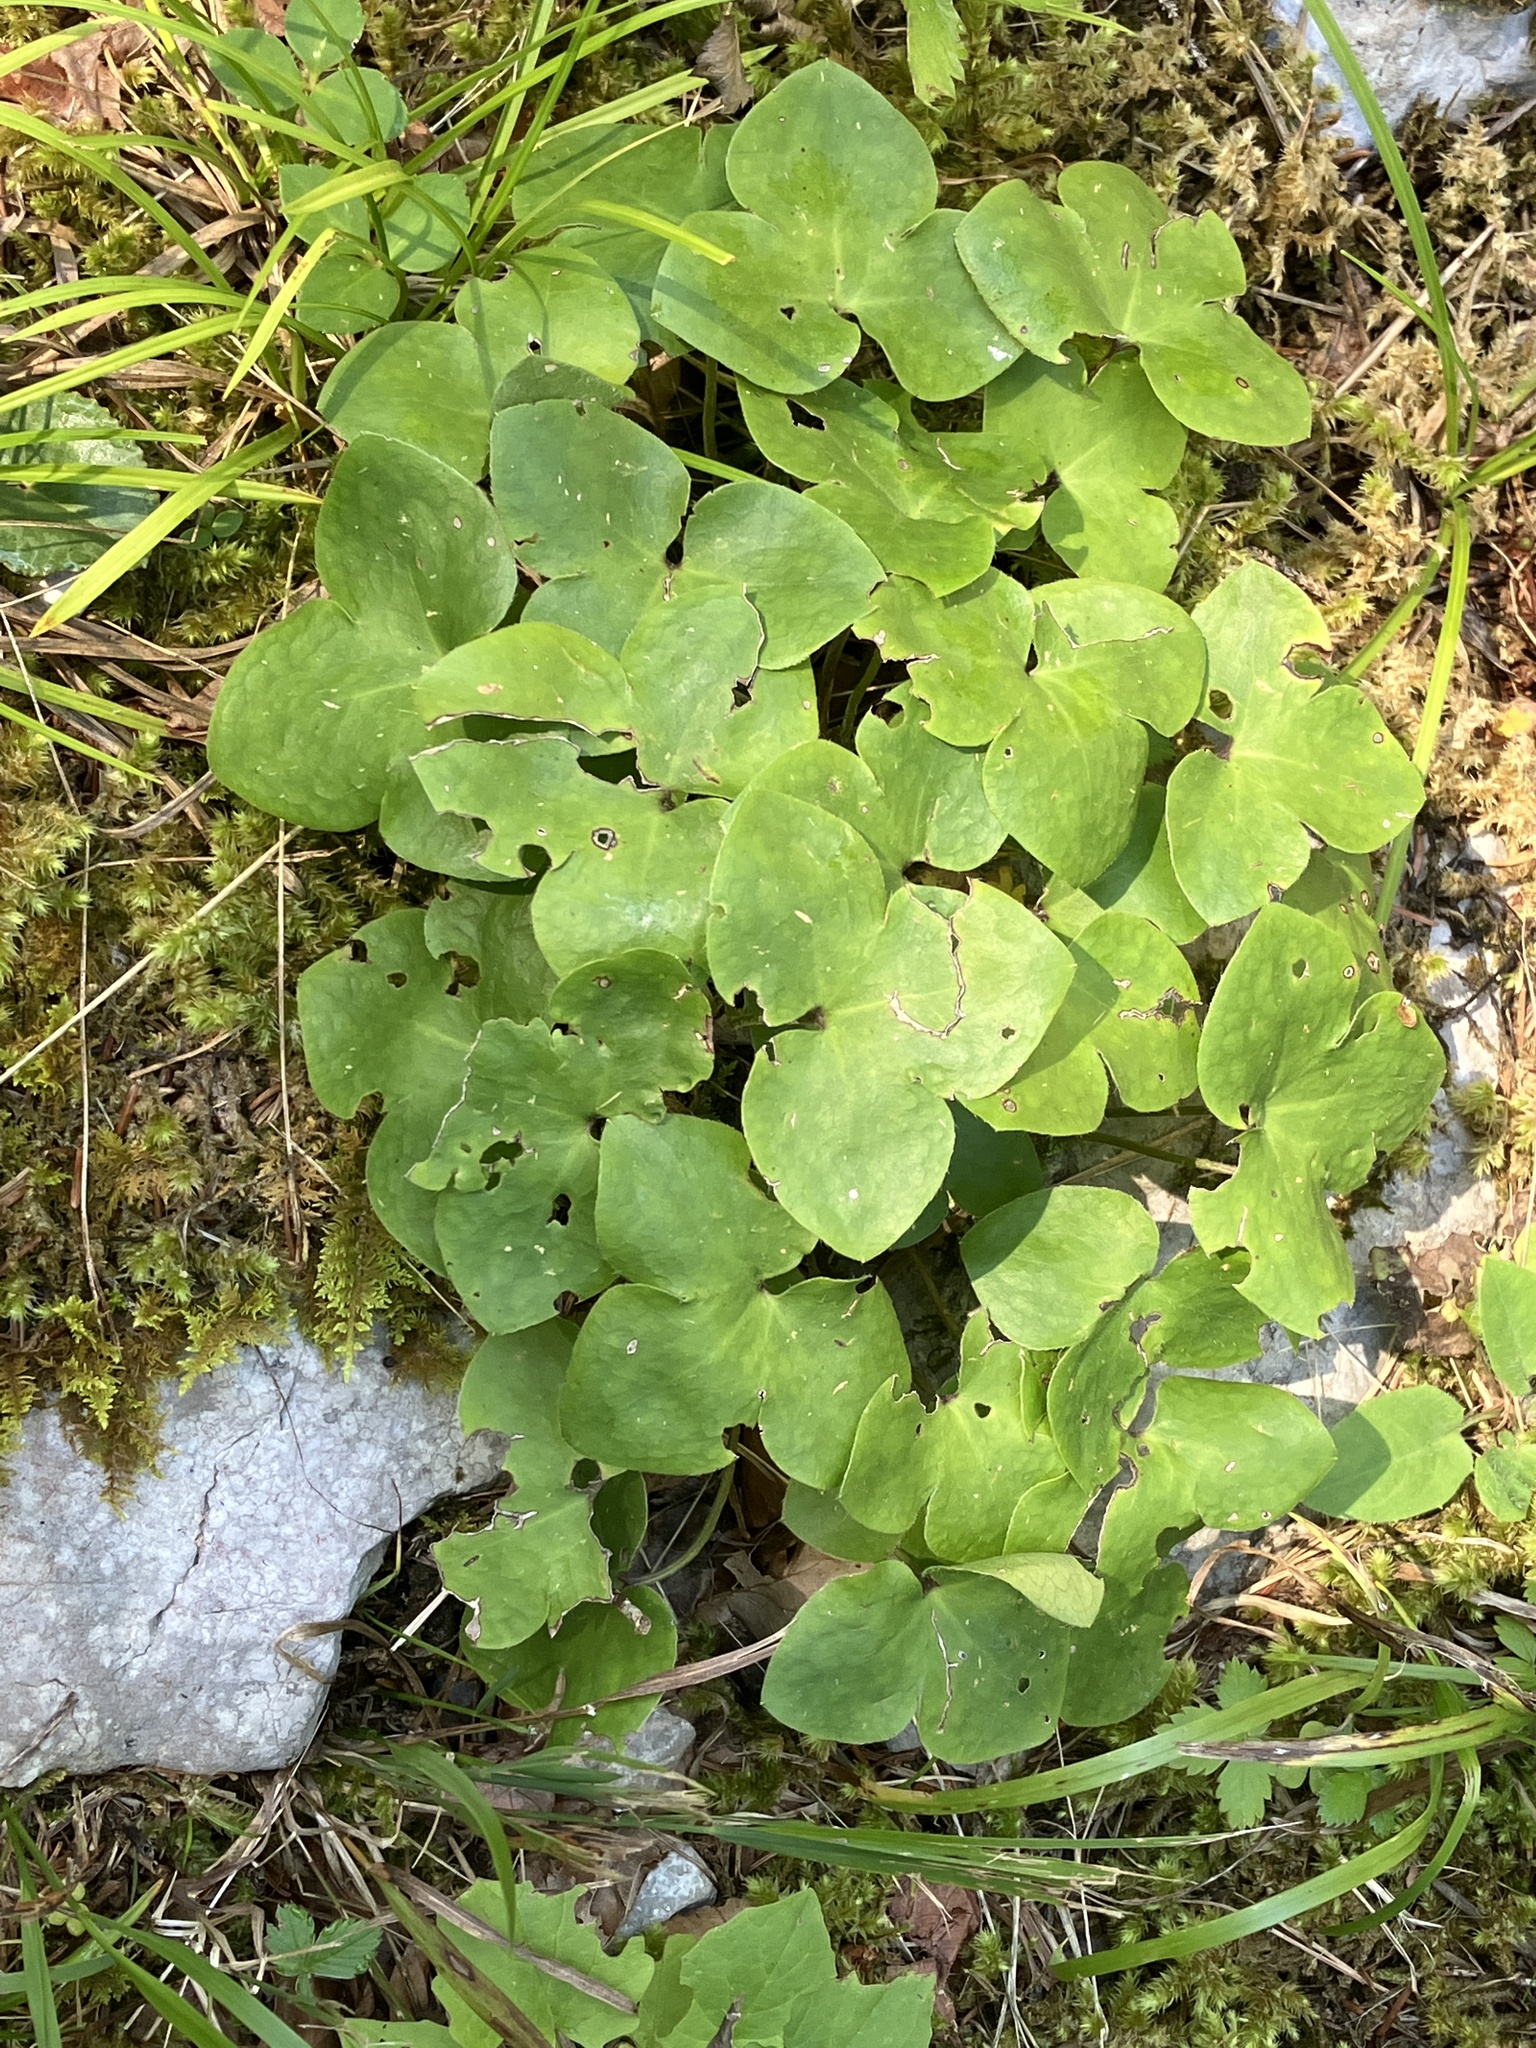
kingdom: Plantae
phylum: Tracheophyta
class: Magnoliopsida
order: Ranunculales
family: Ranunculaceae
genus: Hepatica
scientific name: Hepatica nobilis
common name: Liverleaf
